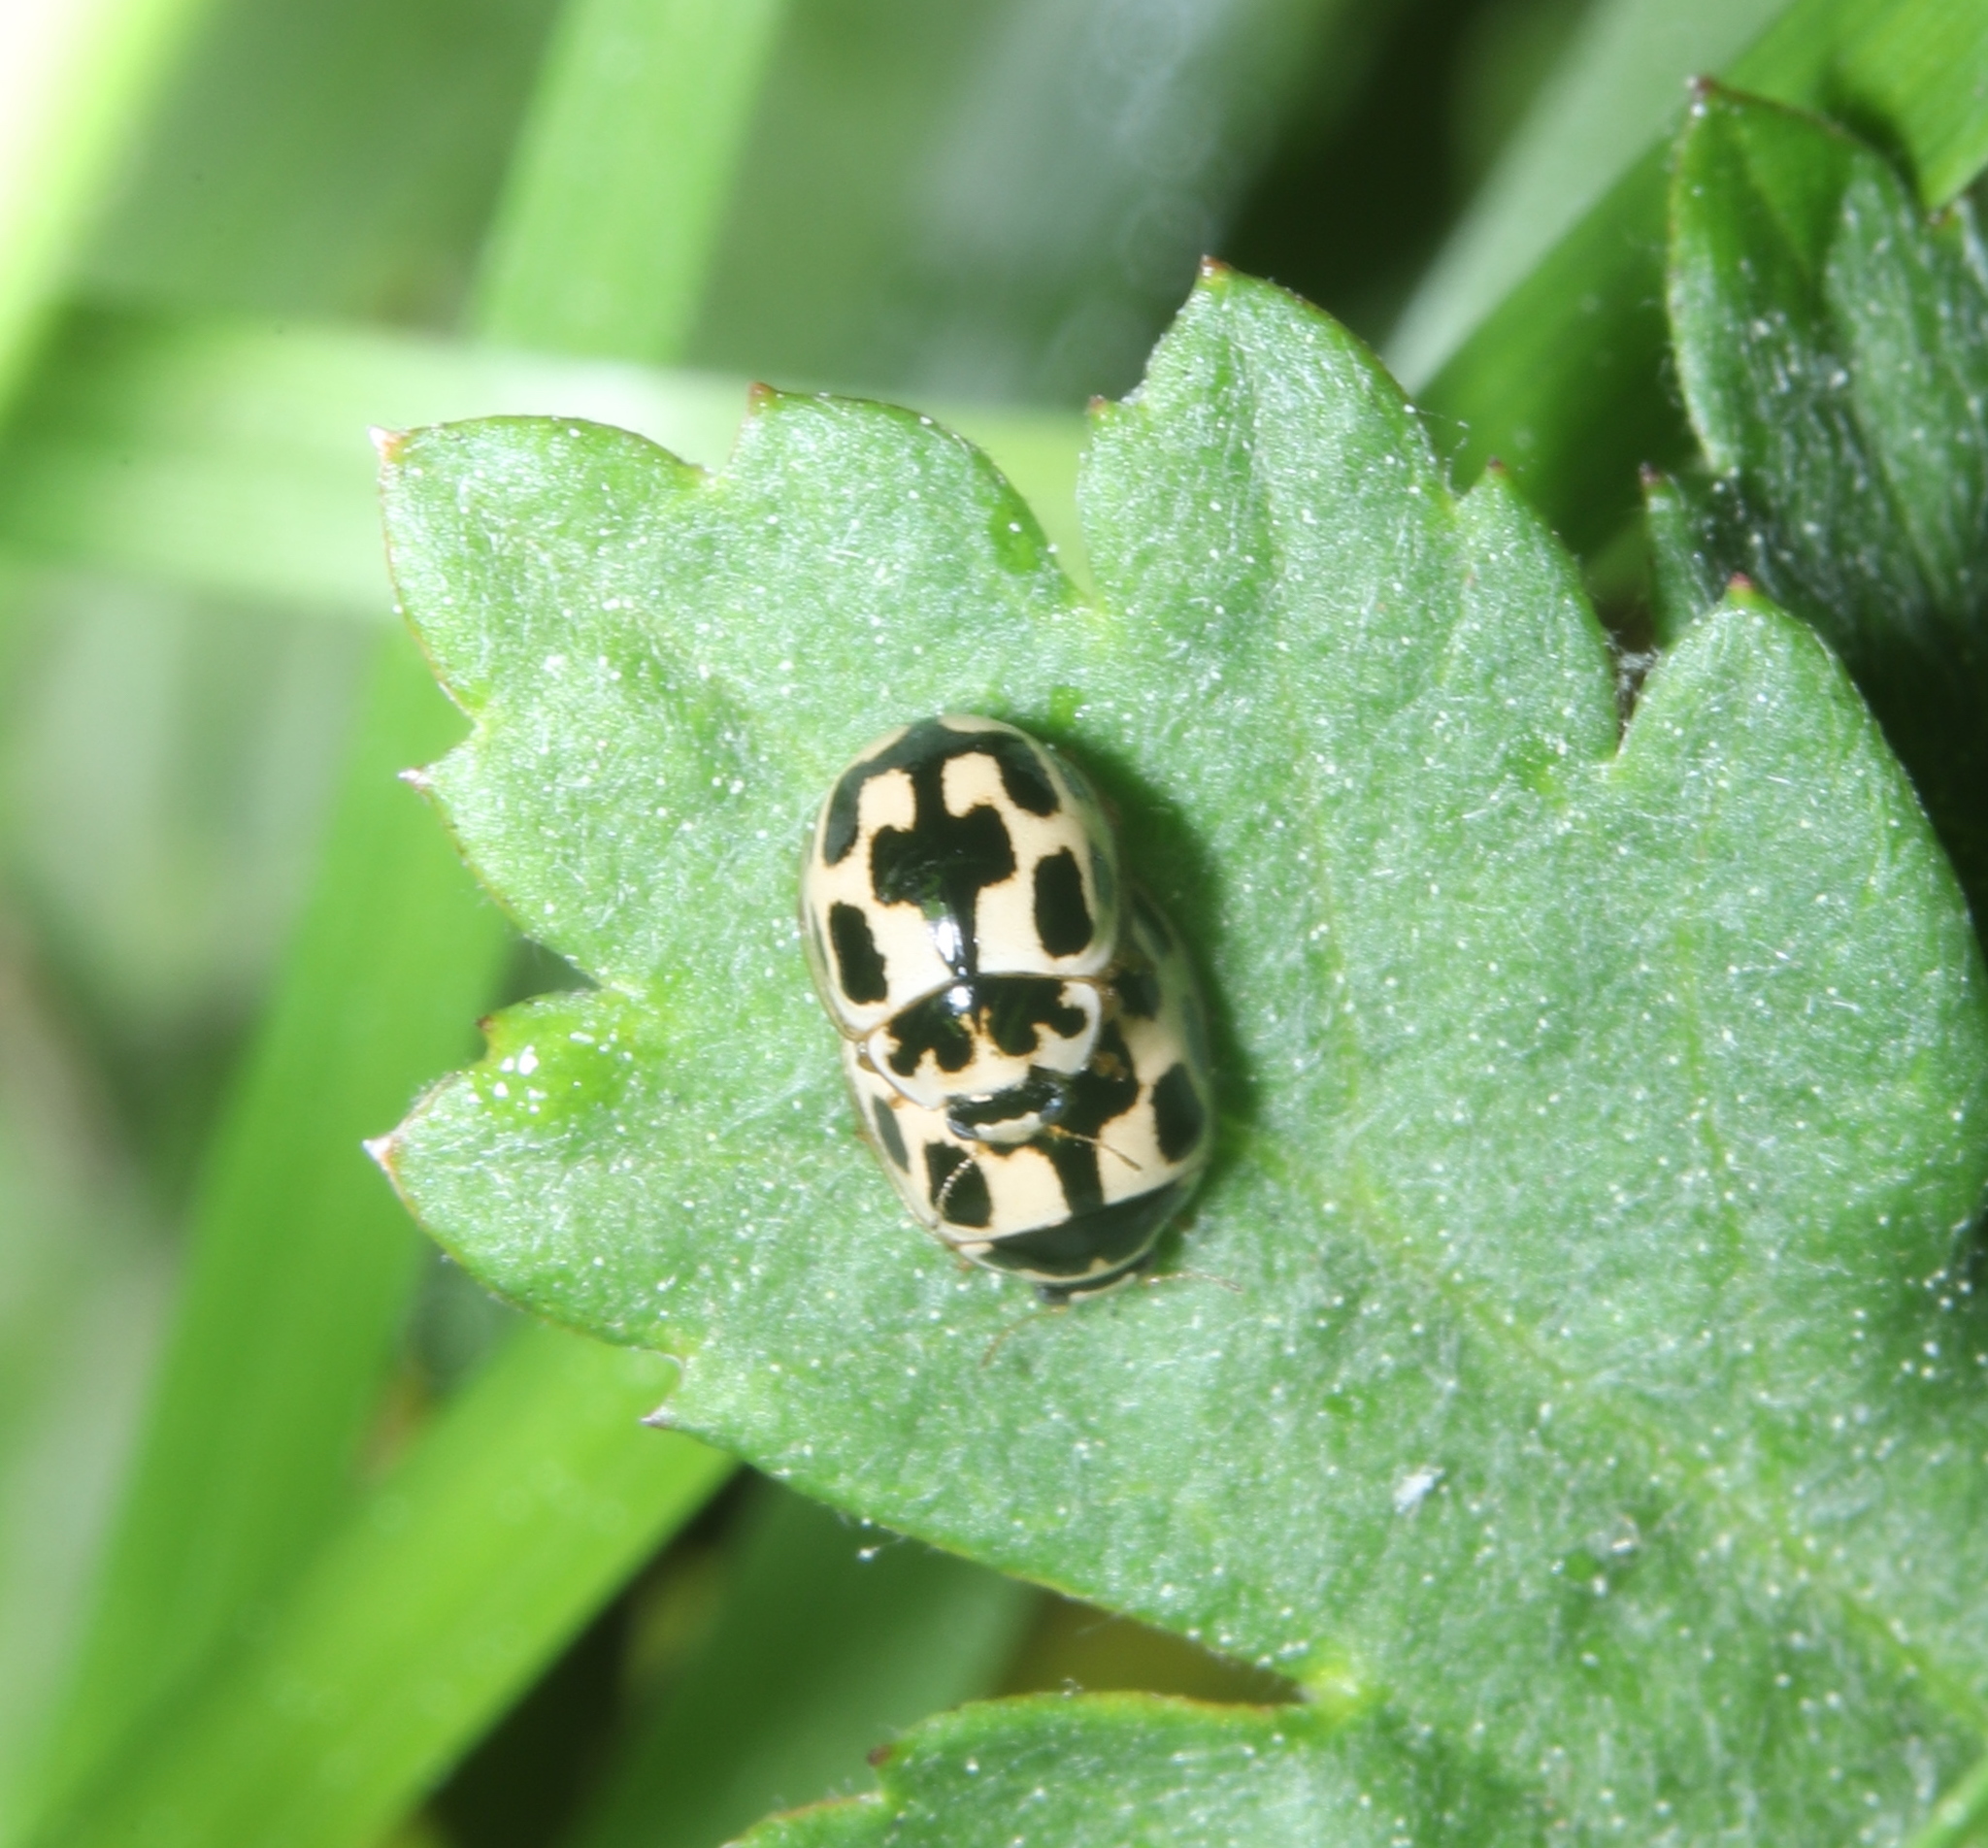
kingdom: Animalia
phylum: Arthropoda
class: Insecta
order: Coleoptera
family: Coccinellidae
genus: Propylaea
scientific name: Propylaea quatuordecimpunctata
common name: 14-spotted ladybird beetle
